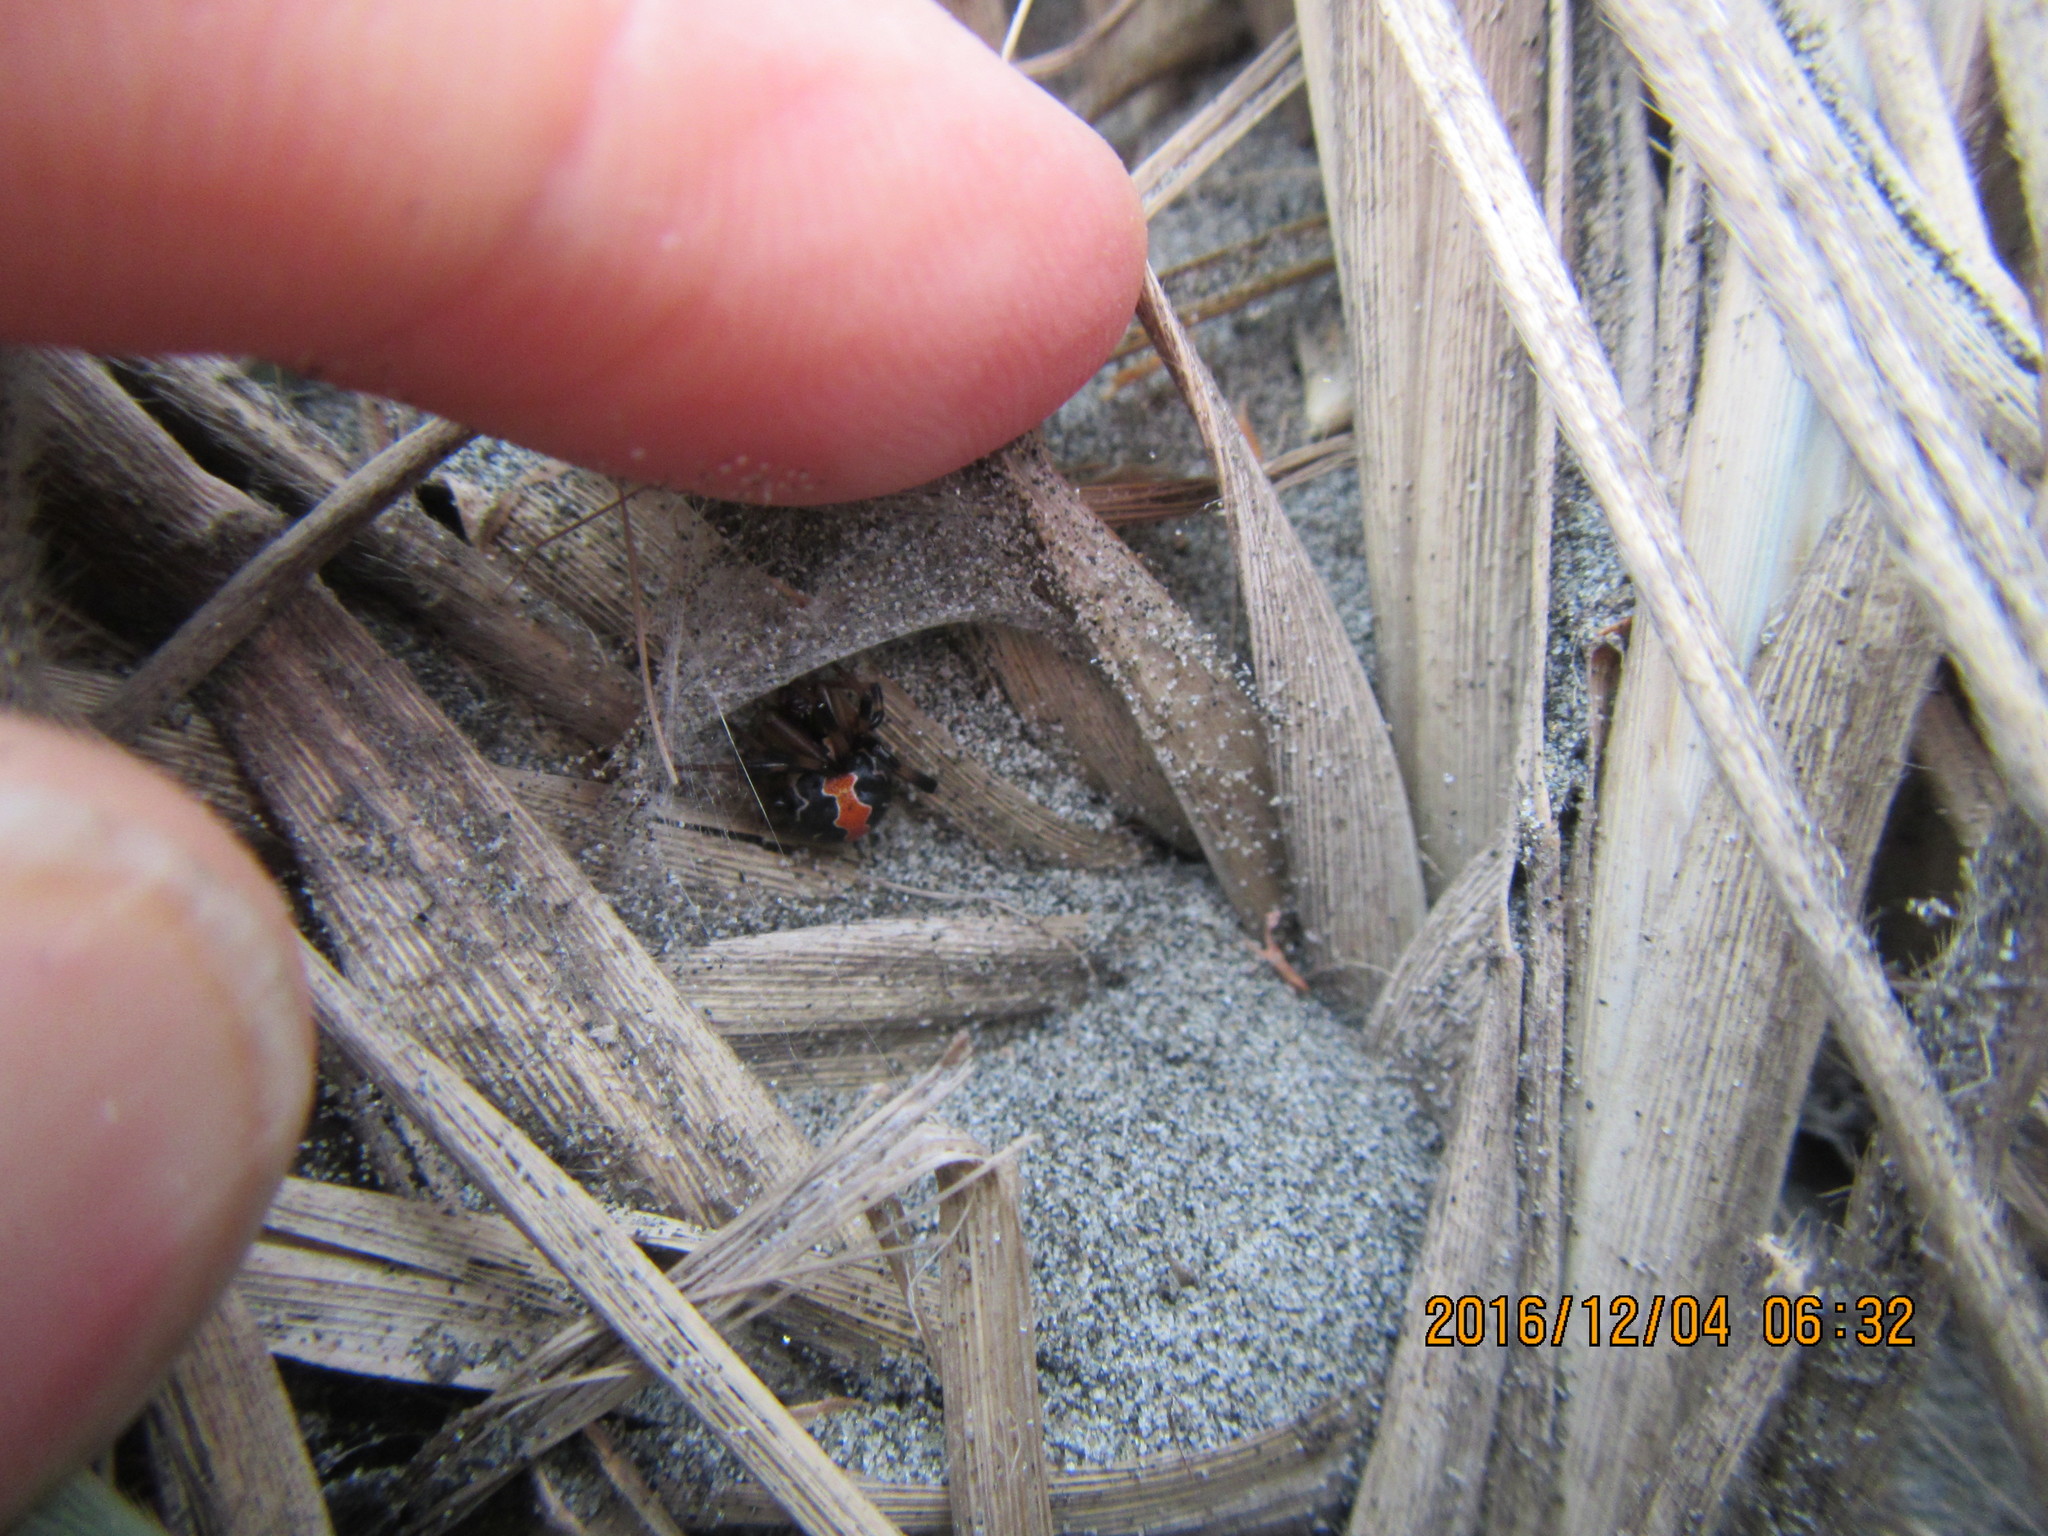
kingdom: Animalia
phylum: Arthropoda
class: Arachnida
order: Araneae
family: Theridiidae
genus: Latrodectus
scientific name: Latrodectus katipo
